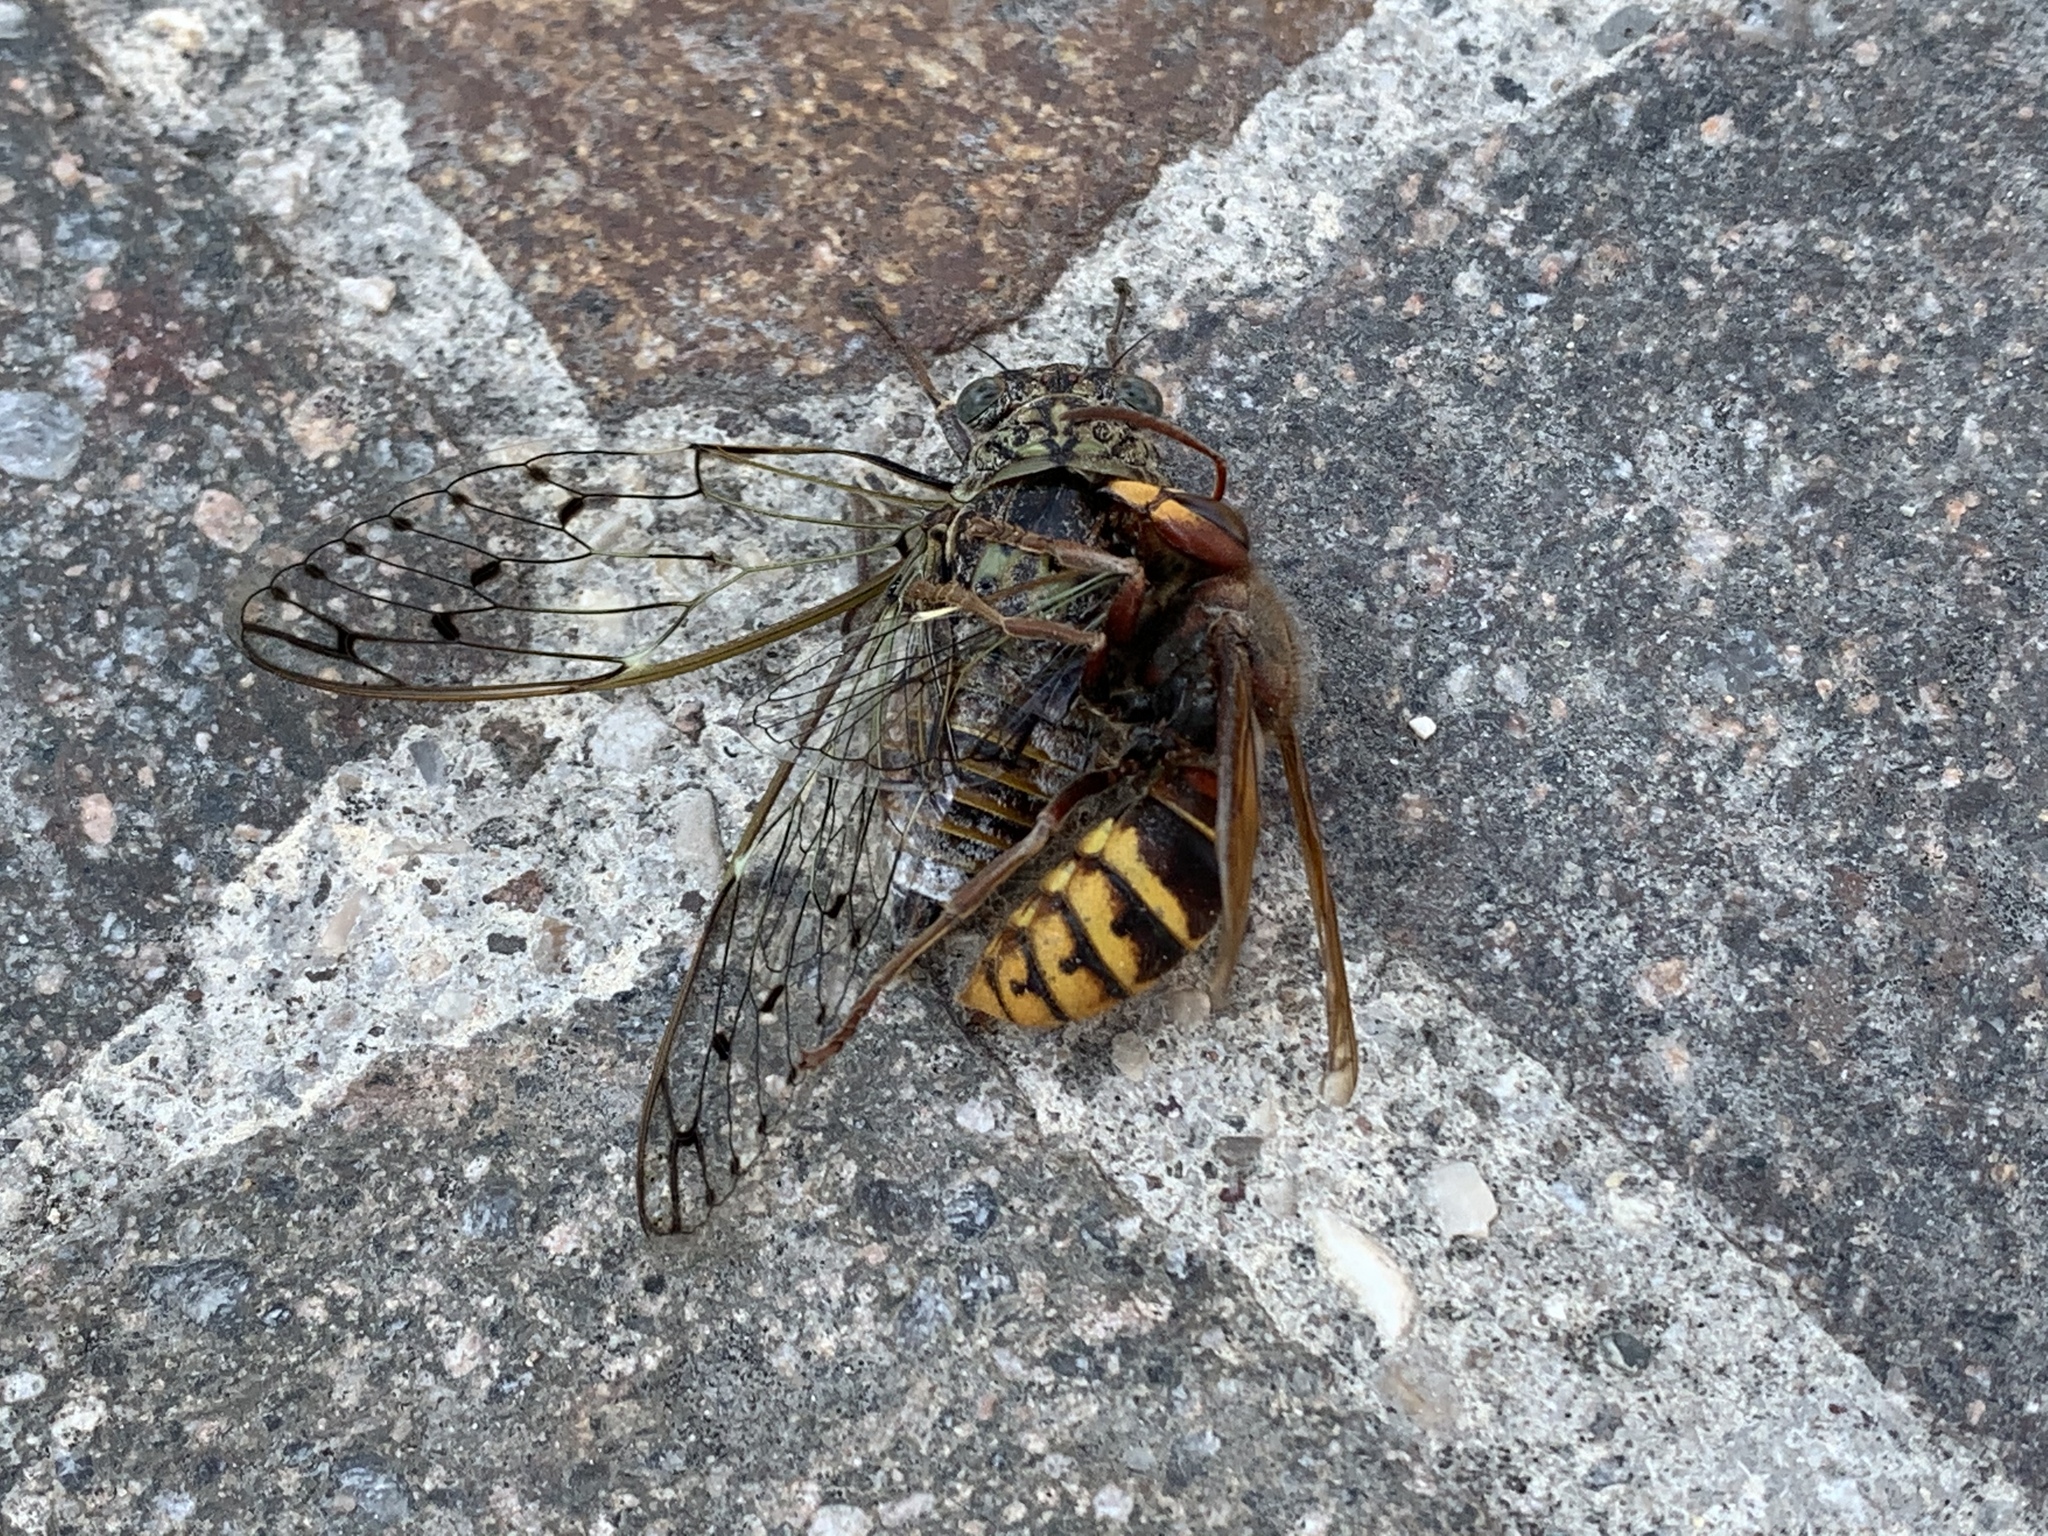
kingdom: Animalia
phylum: Arthropoda
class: Insecta
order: Hymenoptera
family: Vespidae
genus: Vespa
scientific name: Vespa crabro
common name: Hornet
